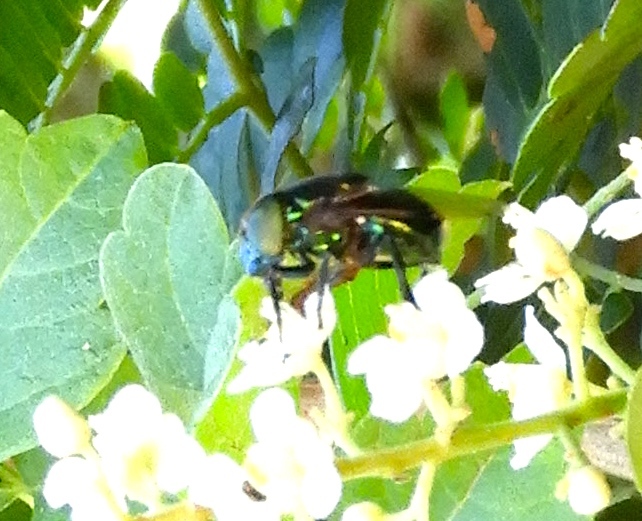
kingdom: Animalia
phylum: Arthropoda
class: Insecta
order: Diptera
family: Syrphidae
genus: Ornidia
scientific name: Ornidia
